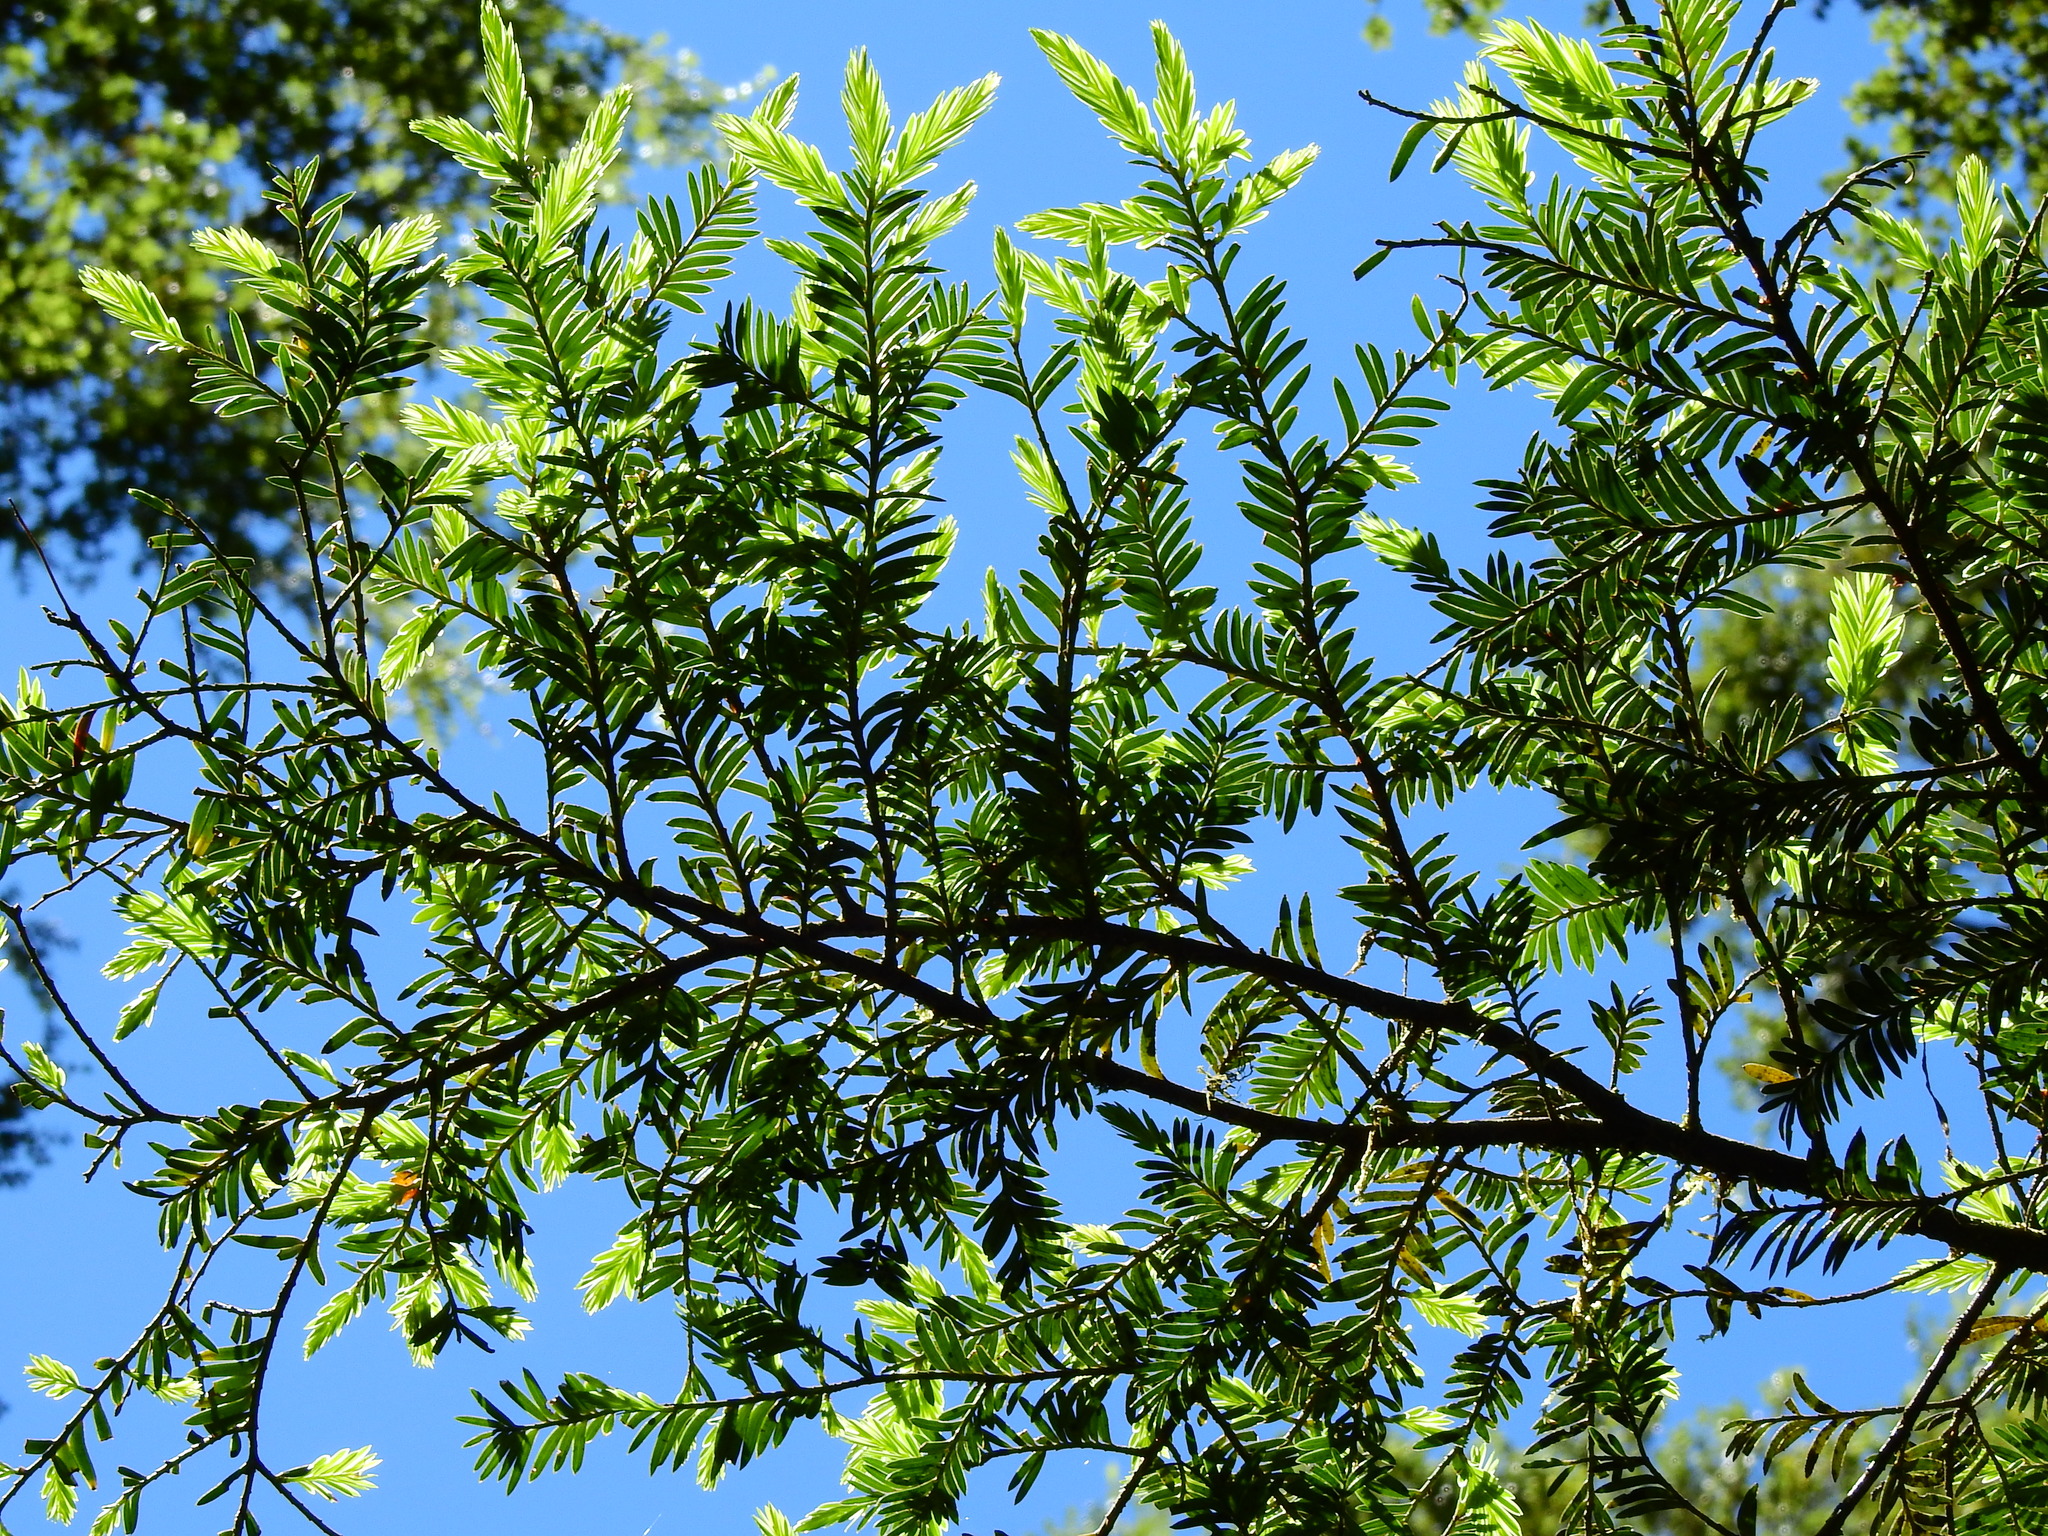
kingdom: Plantae
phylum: Tracheophyta
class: Pinopsida
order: Pinales
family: Podocarpaceae
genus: Prumnopitys
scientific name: Prumnopitys ferruginea
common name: Brown pine
